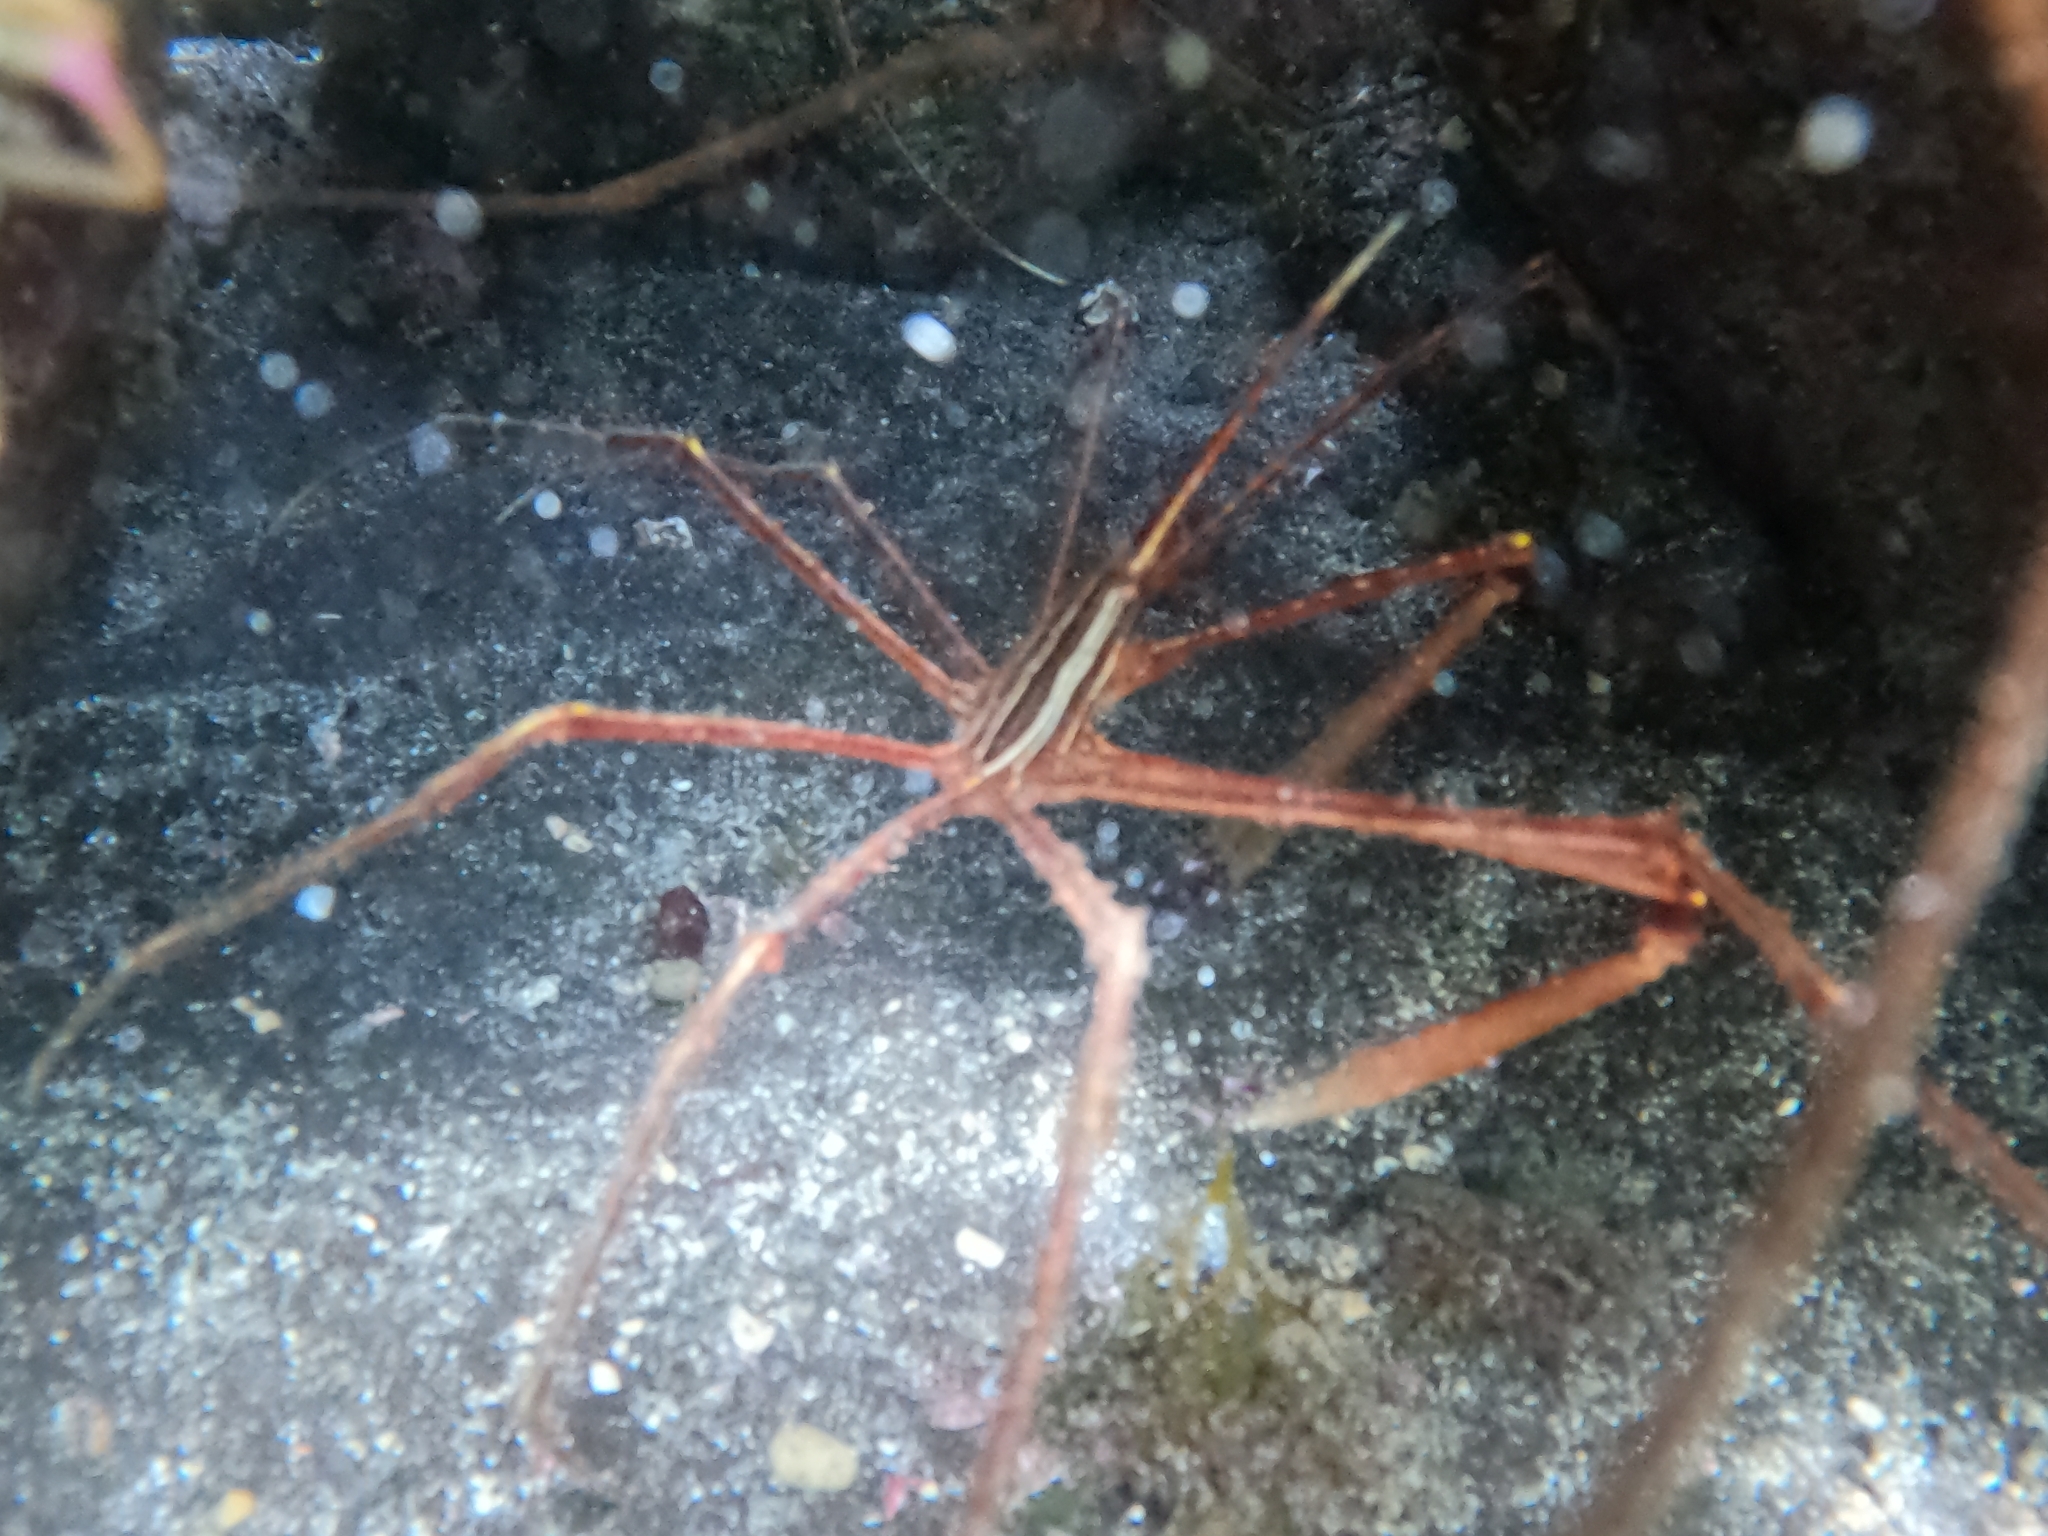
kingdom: Animalia
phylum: Arthropoda
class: Malacostraca
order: Decapoda
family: Inachoididae
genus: Stenorhynchus
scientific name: Stenorhynchus lanceolatus
